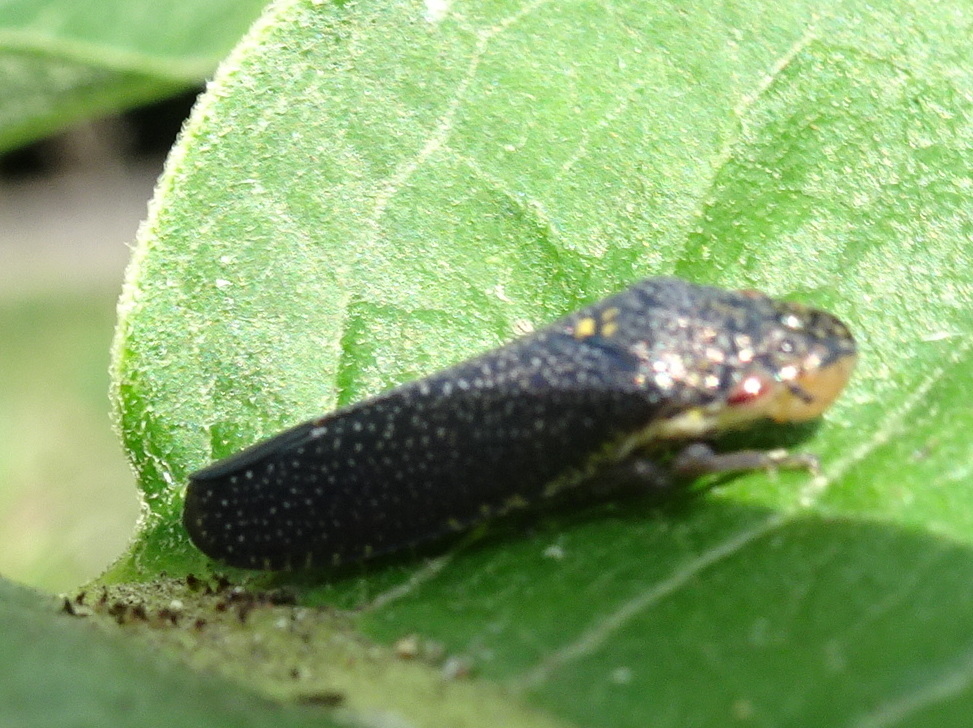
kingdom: Animalia
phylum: Arthropoda
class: Insecta
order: Hemiptera
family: Cicadellidae
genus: Paraulacizes
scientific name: Paraulacizes irrorata
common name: Speckled sharpshooter
